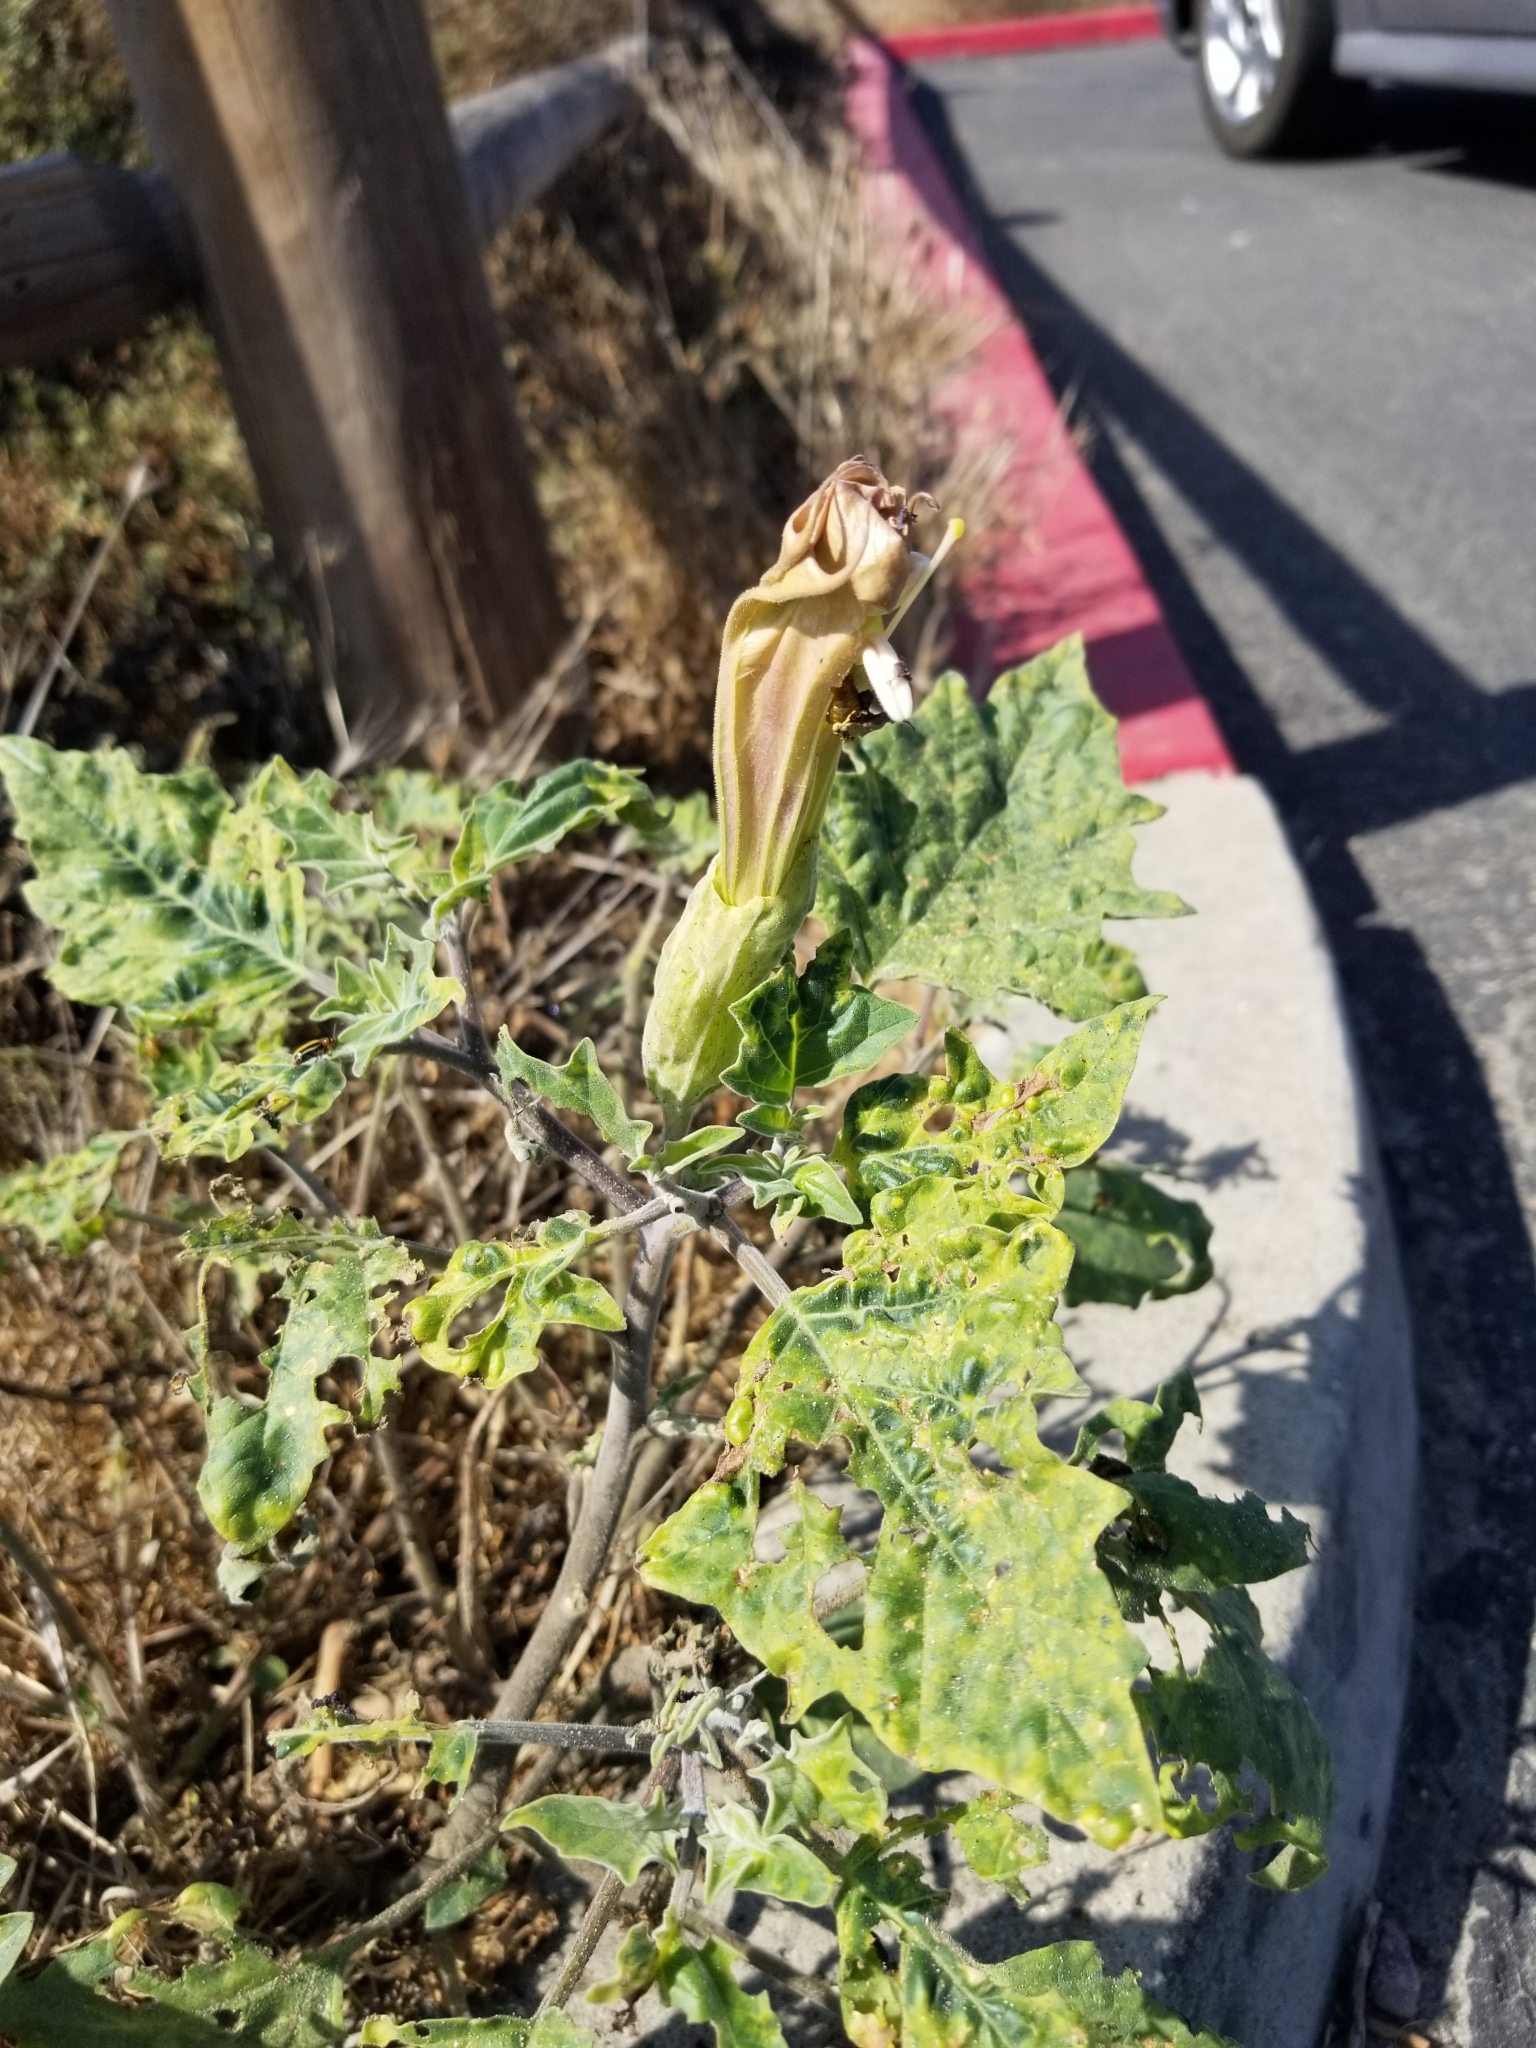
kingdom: Plantae
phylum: Tracheophyta
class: Magnoliopsida
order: Solanales
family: Solanaceae
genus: Datura
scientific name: Datura wrightii
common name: Sacred thorn-apple
